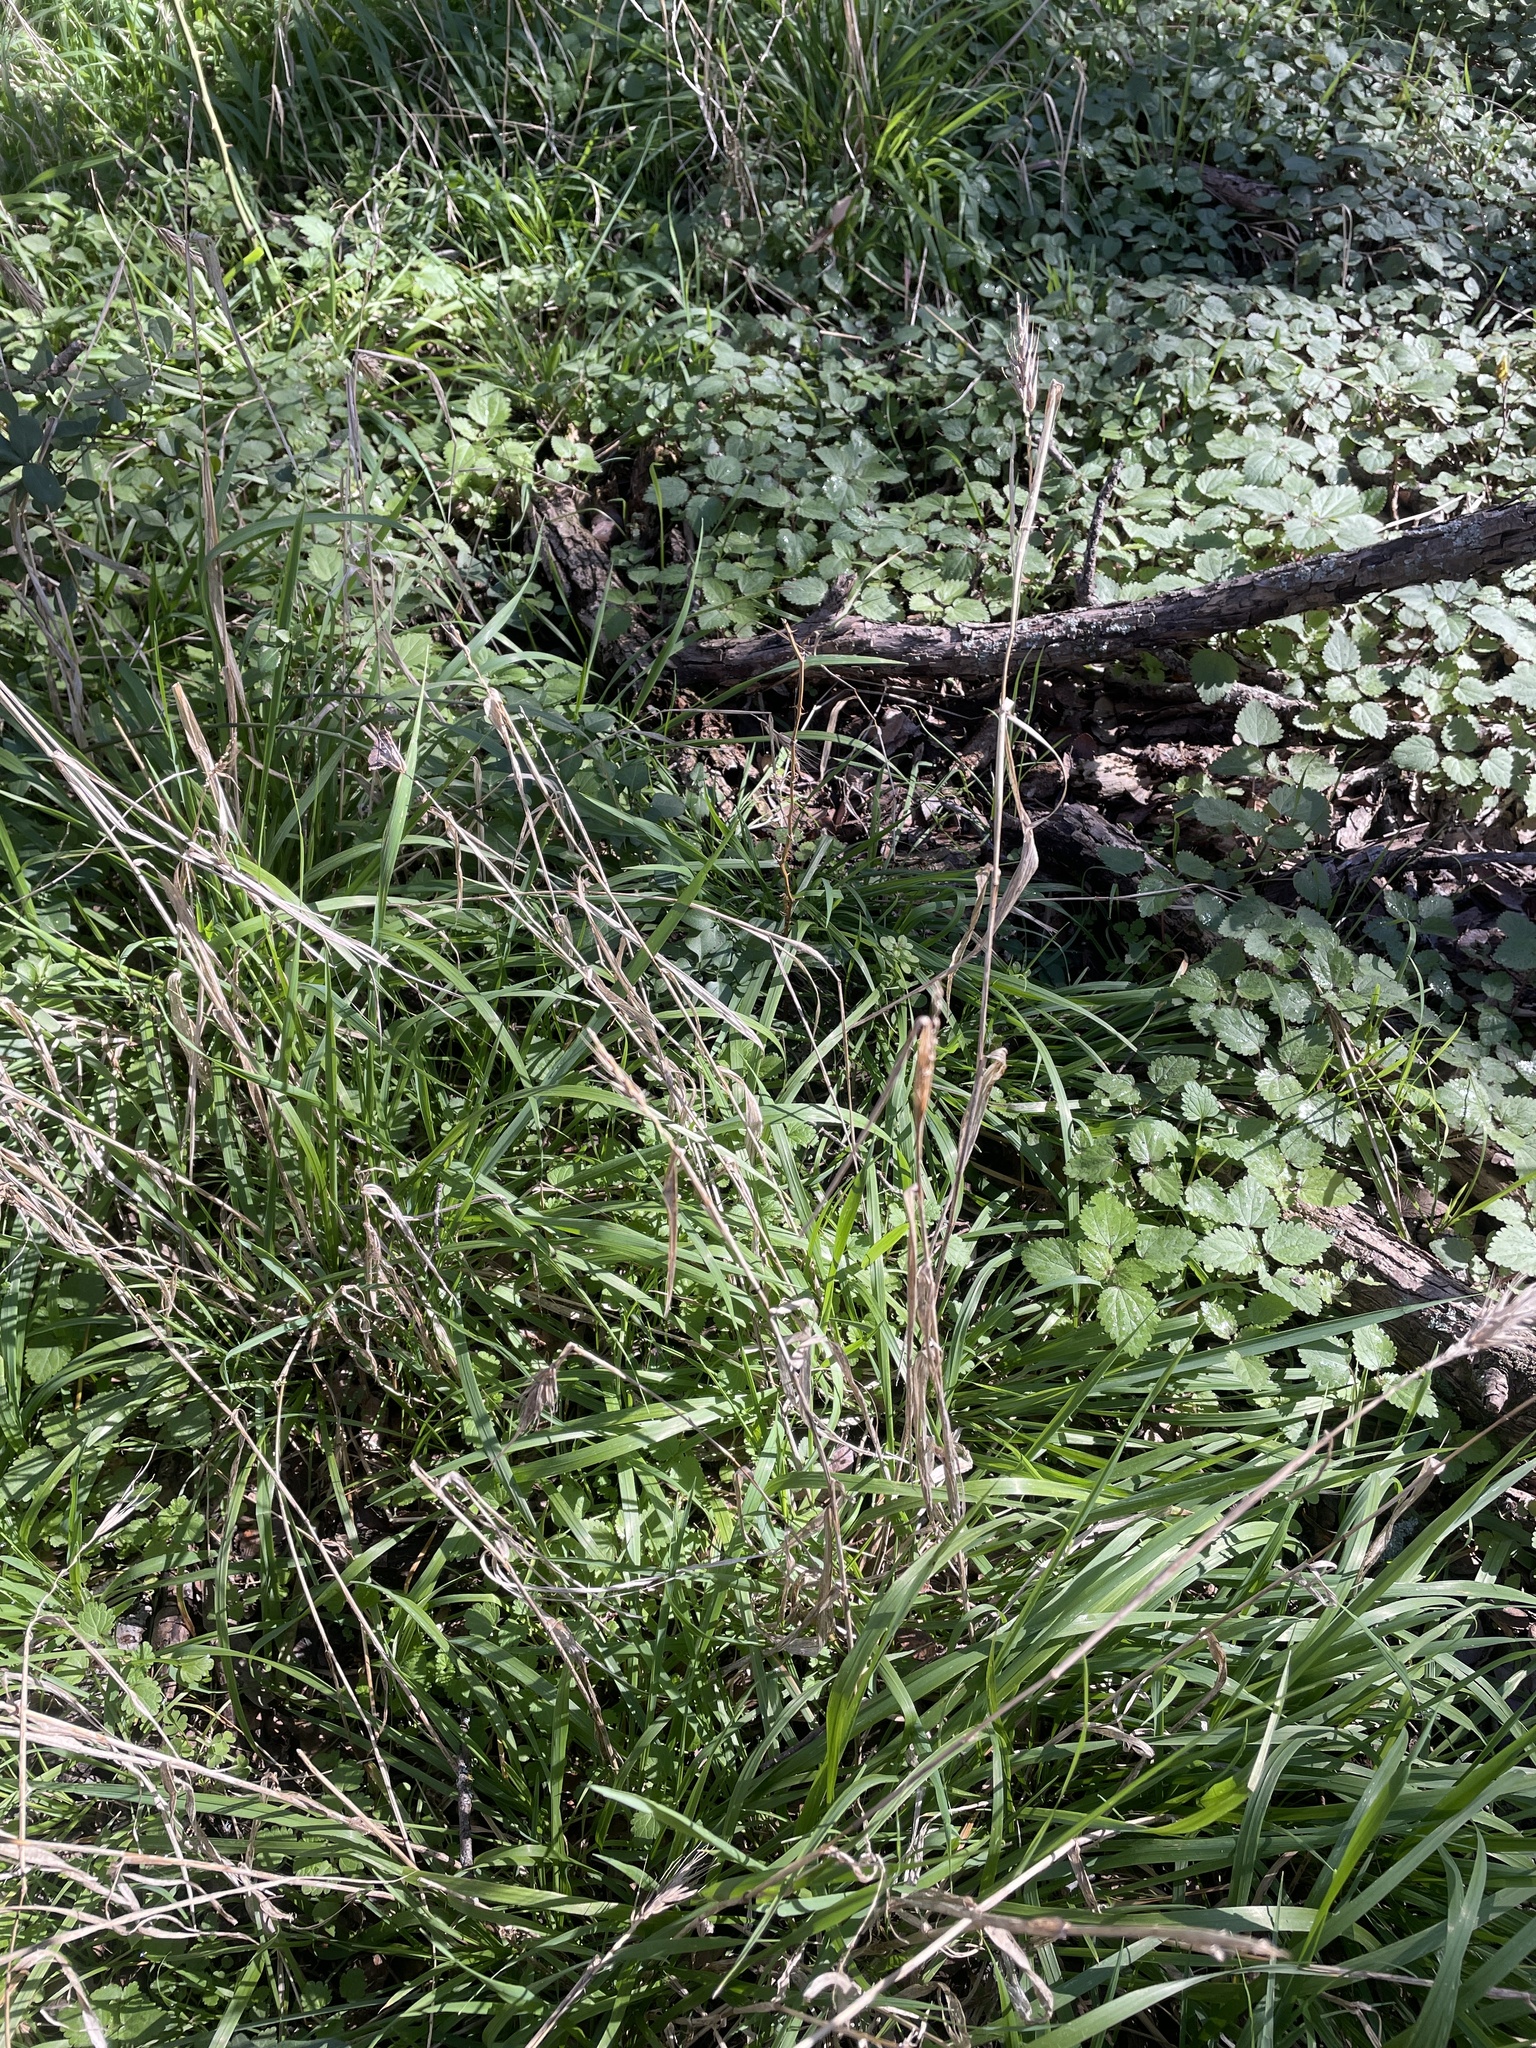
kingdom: Plantae
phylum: Tracheophyta
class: Liliopsida
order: Poales
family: Poaceae
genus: Elymus
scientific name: Elymus virginicus
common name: Common eastern wildrye
